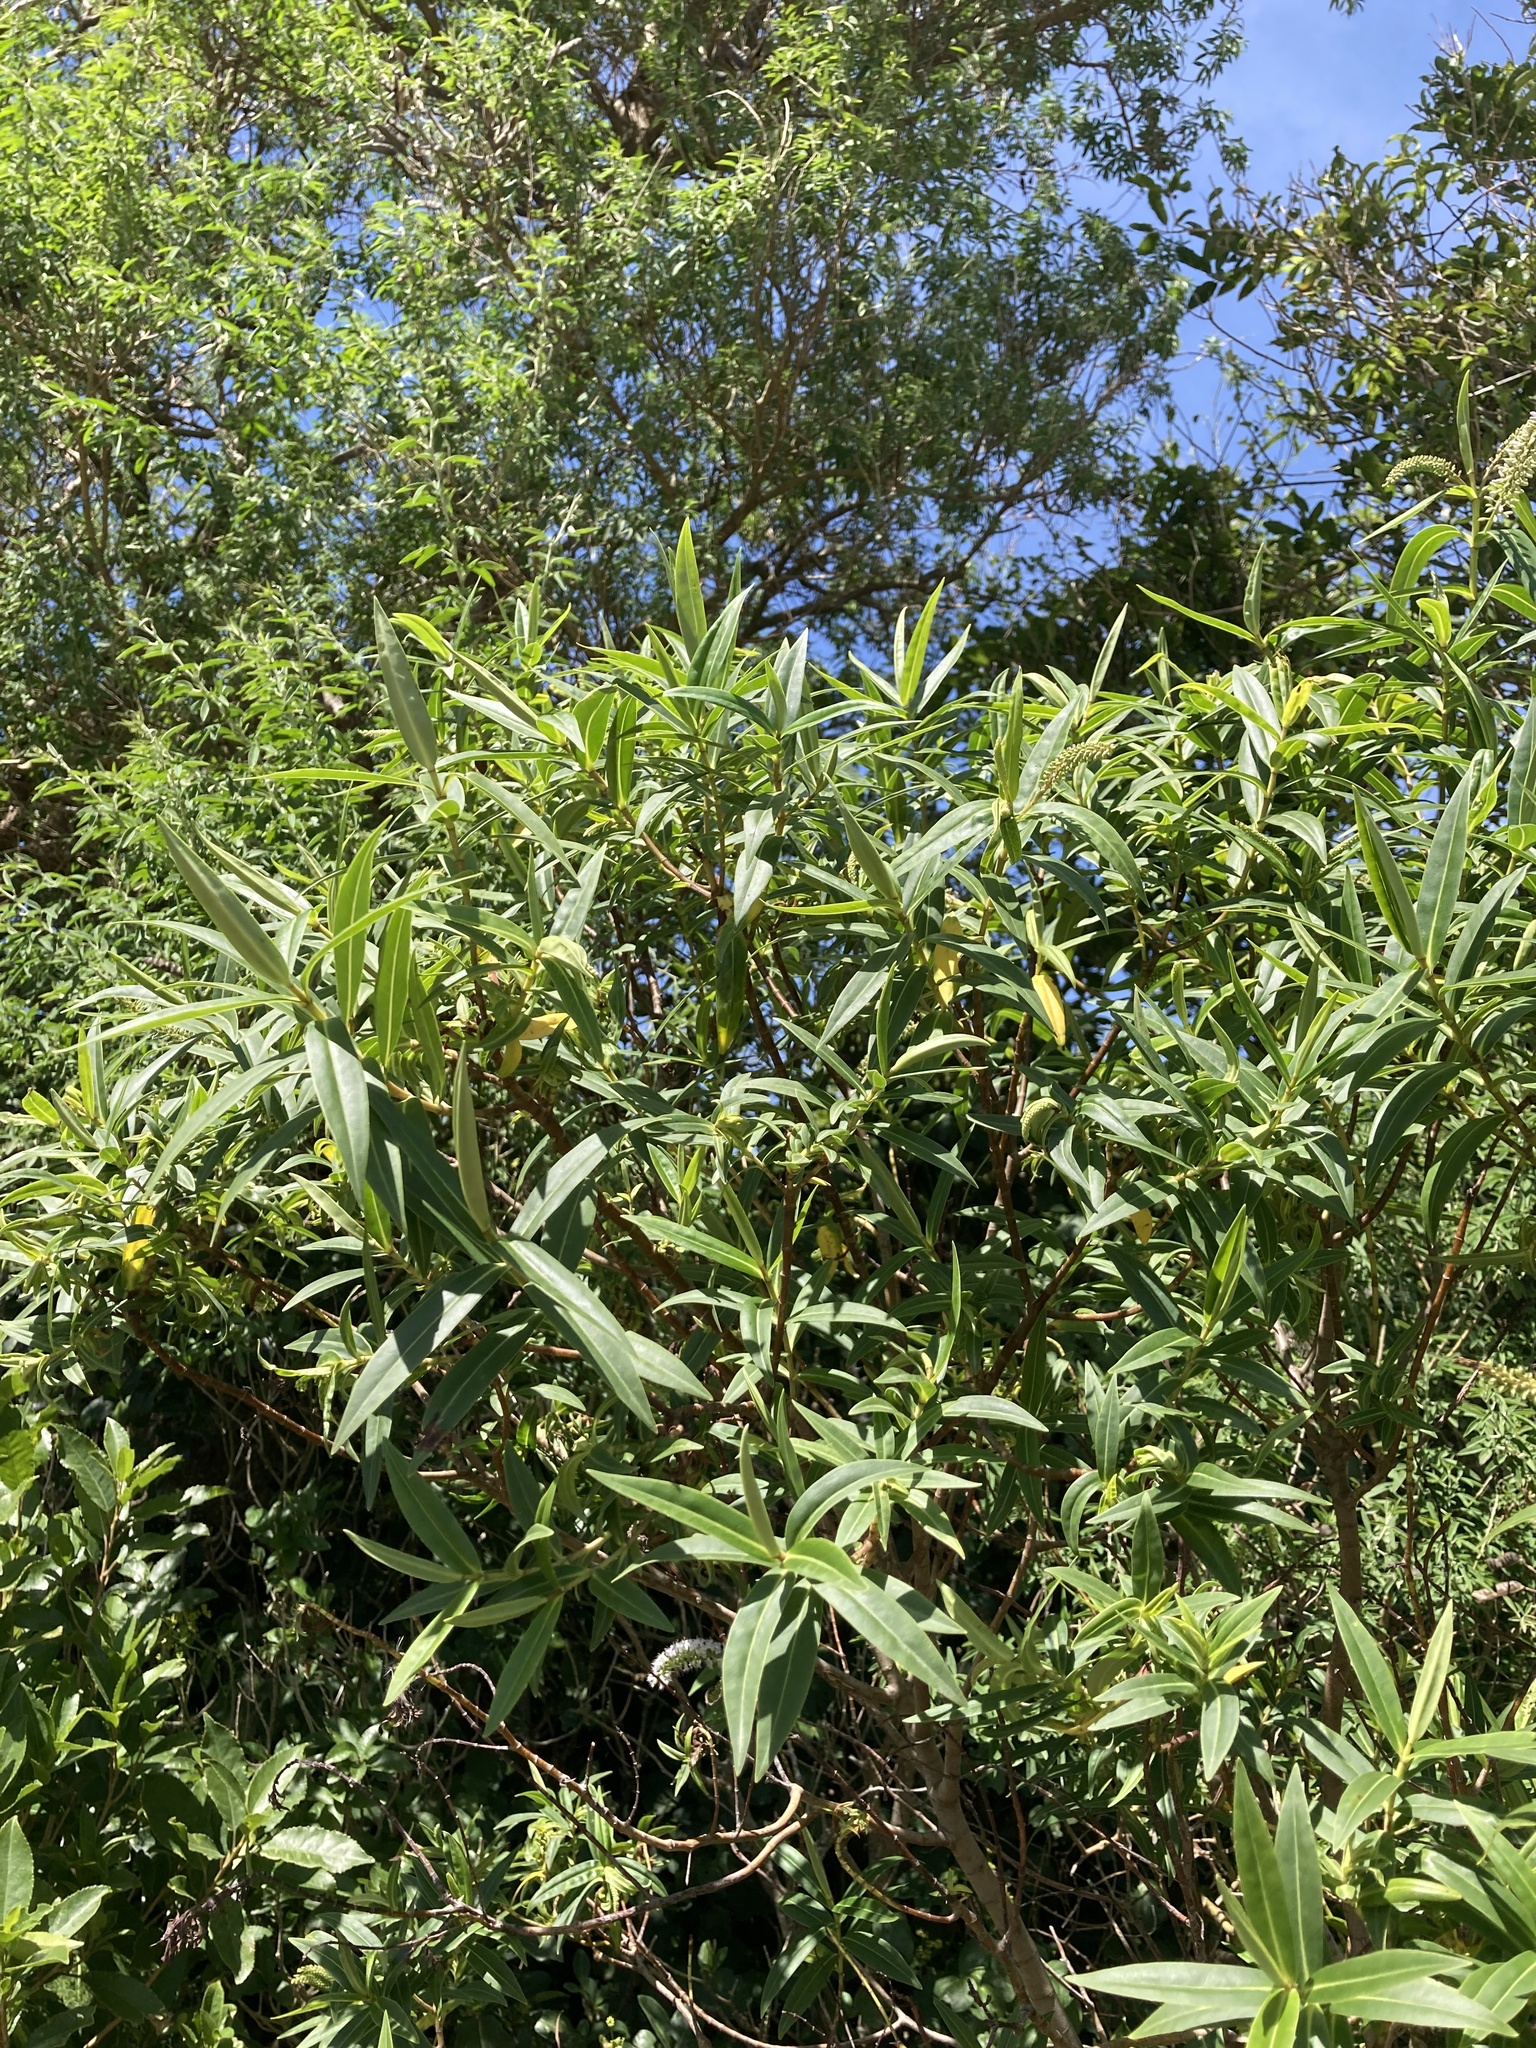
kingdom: Plantae
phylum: Tracheophyta
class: Magnoliopsida
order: Lamiales
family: Plantaginaceae
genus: Veronica
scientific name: Veronica stricta
